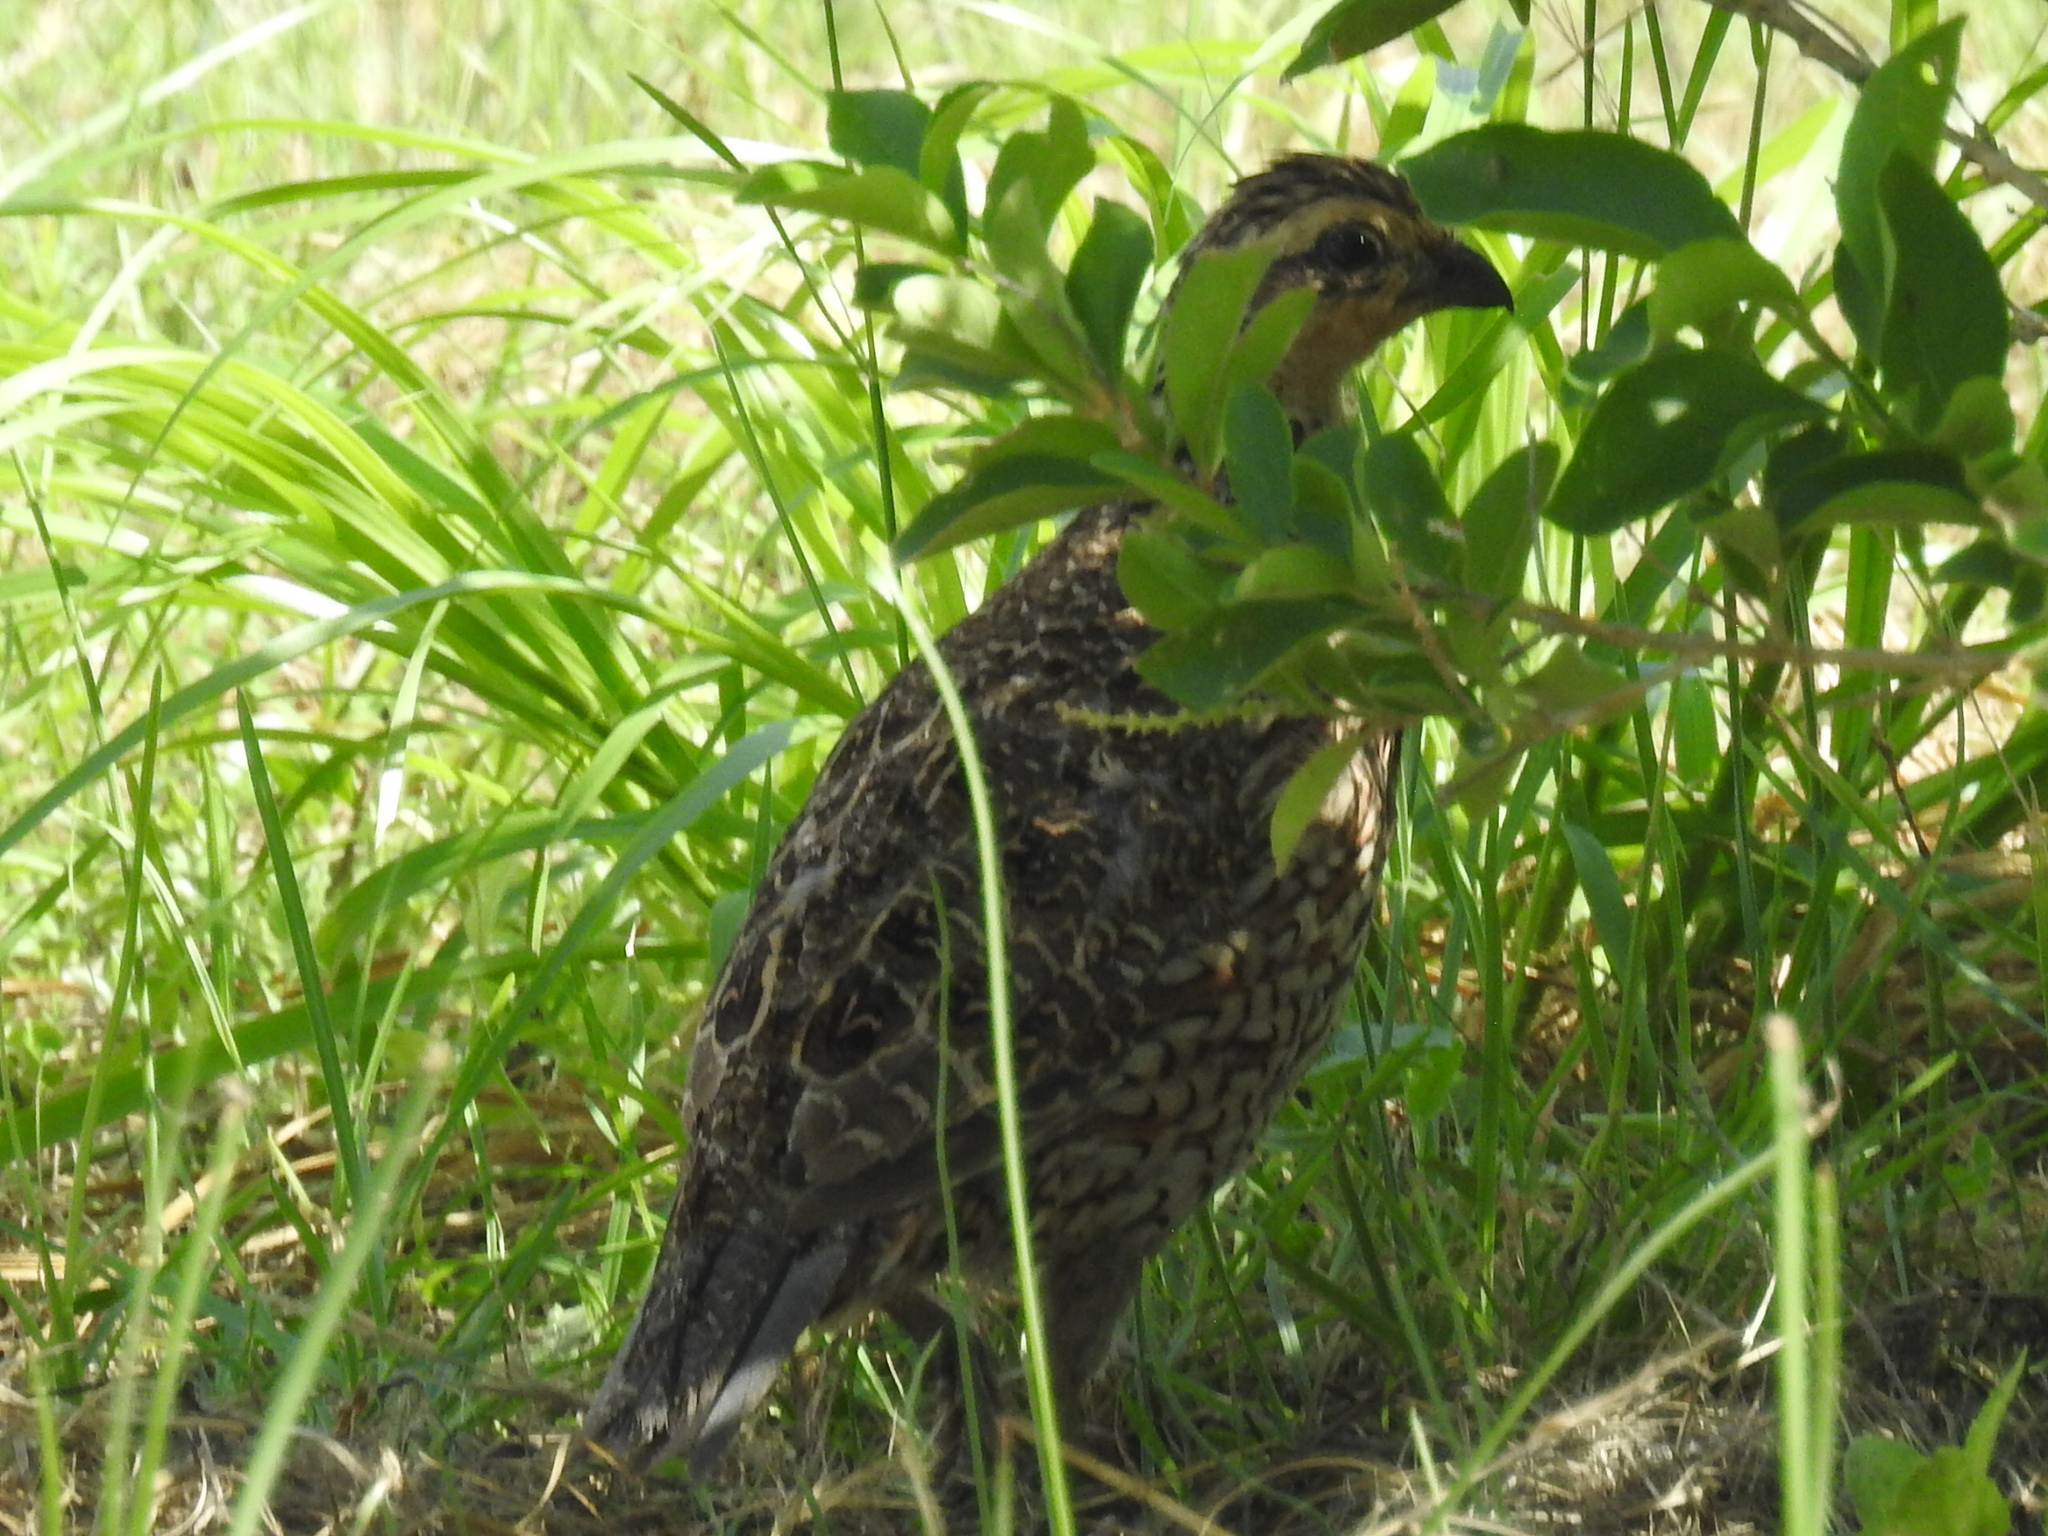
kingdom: Animalia
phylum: Chordata
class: Aves
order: Galliformes
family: Odontophoridae
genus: Colinus
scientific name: Colinus virginianus
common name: Northern bobwhite
